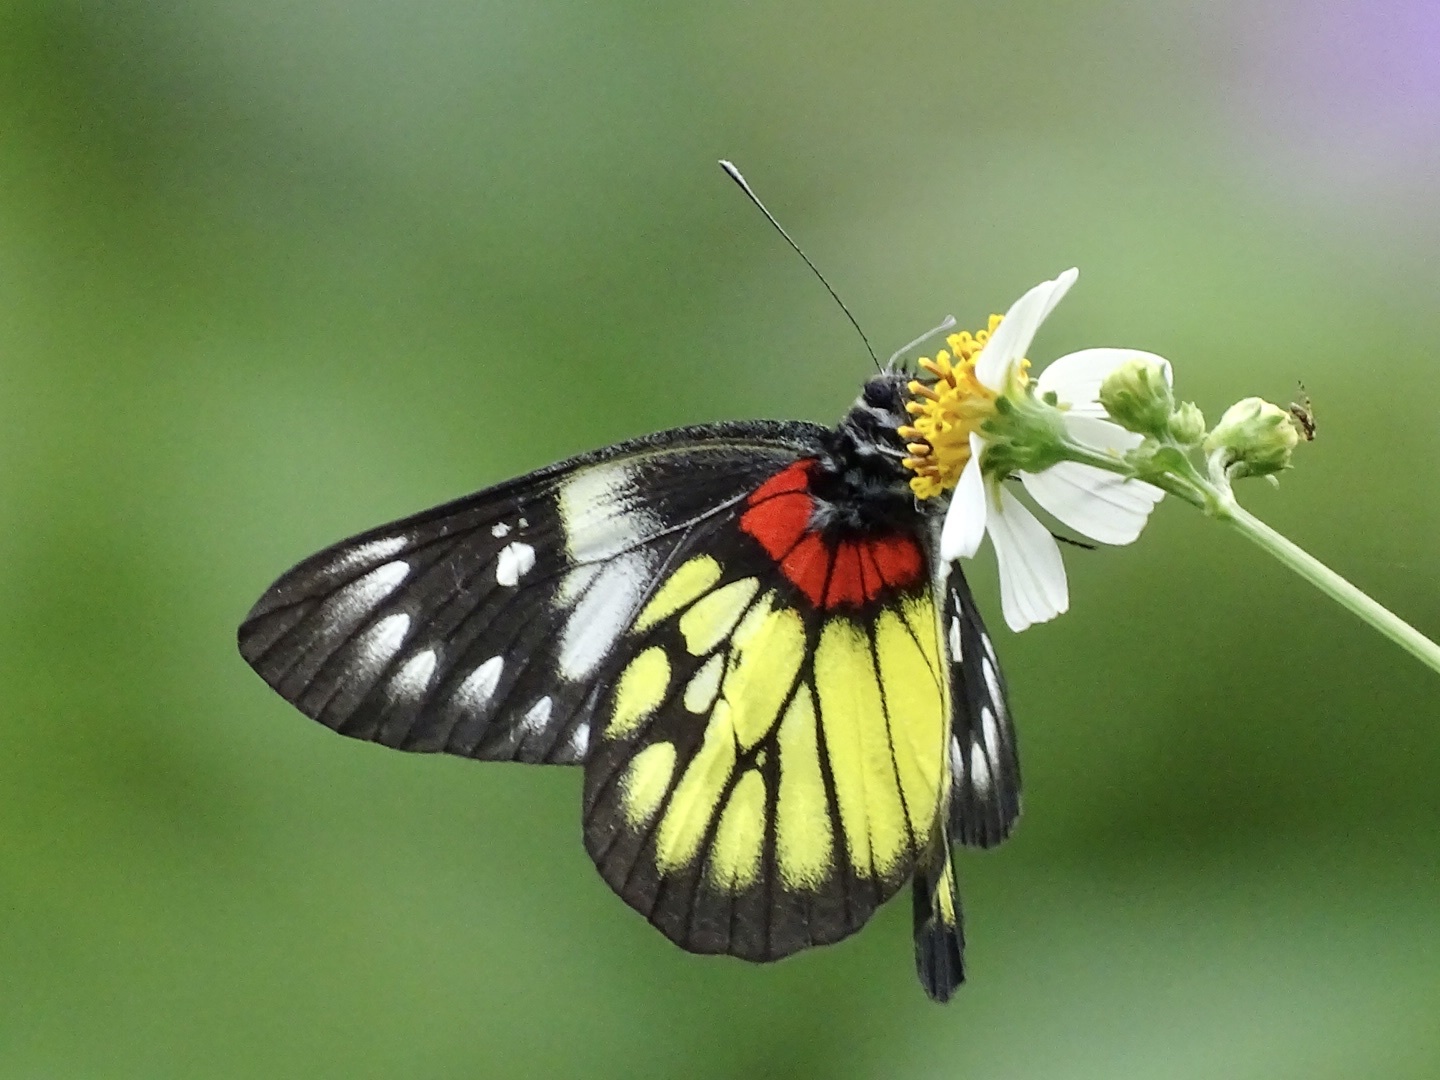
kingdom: Animalia
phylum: Arthropoda
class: Insecta
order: Lepidoptera
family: Pieridae
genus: Delias
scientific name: Delias pasithoe
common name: Red-base jezebel
